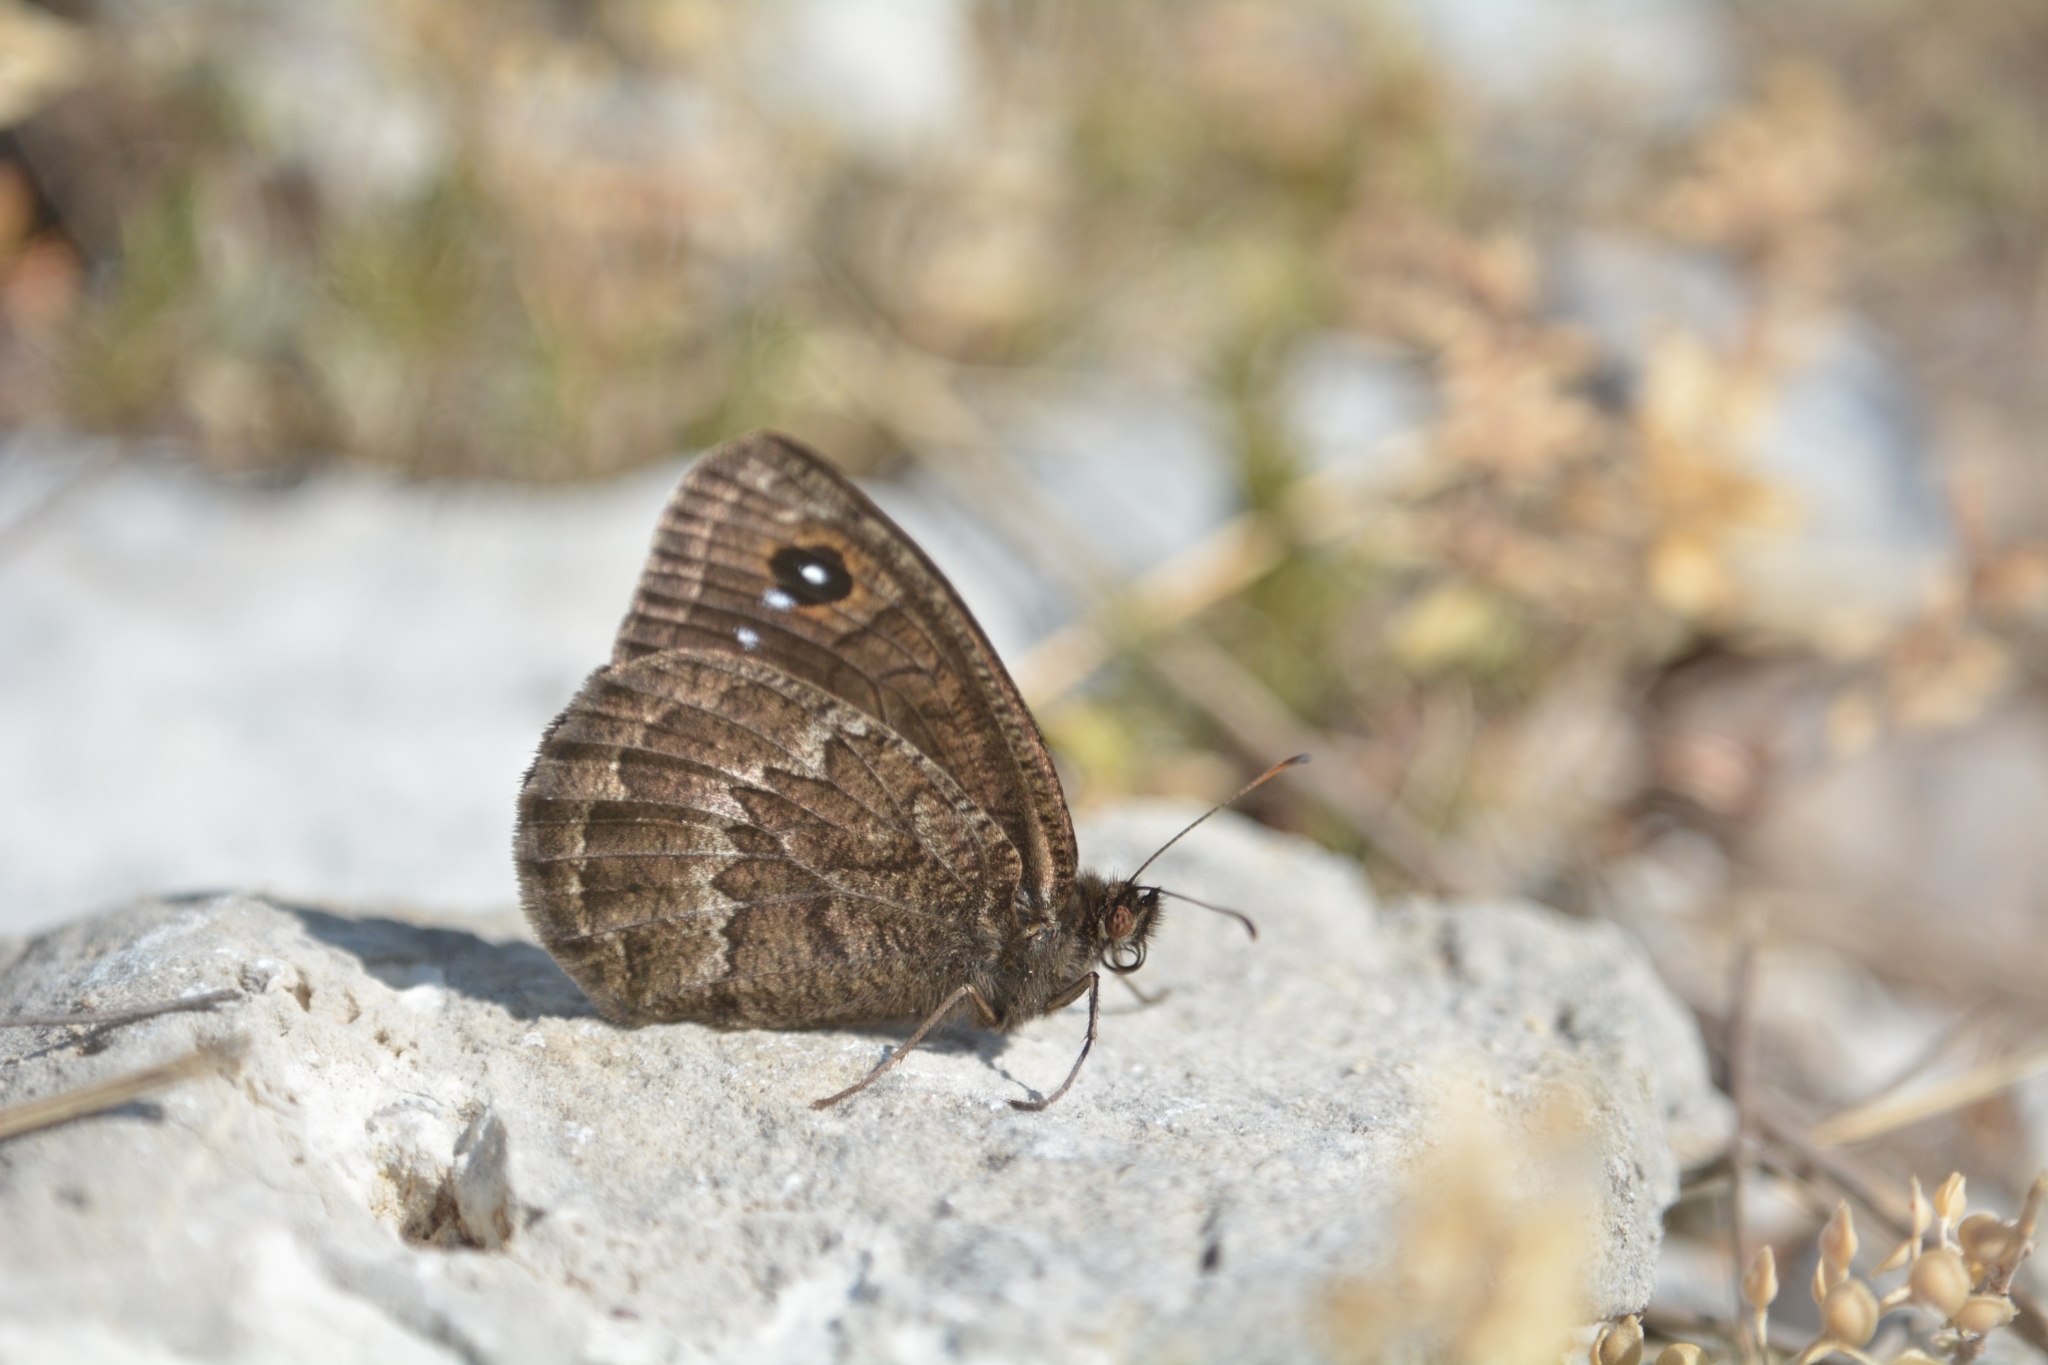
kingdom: Animalia
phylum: Arthropoda
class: Insecta
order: Lepidoptera
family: Nymphalidae
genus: Satyrus
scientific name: Satyrus actaea
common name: Black satyr
